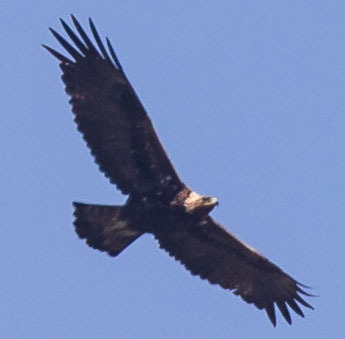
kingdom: Animalia
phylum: Chordata
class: Aves
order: Accipitriformes
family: Accipitridae
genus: Aquila
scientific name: Aquila chrysaetos
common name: Golden eagle
